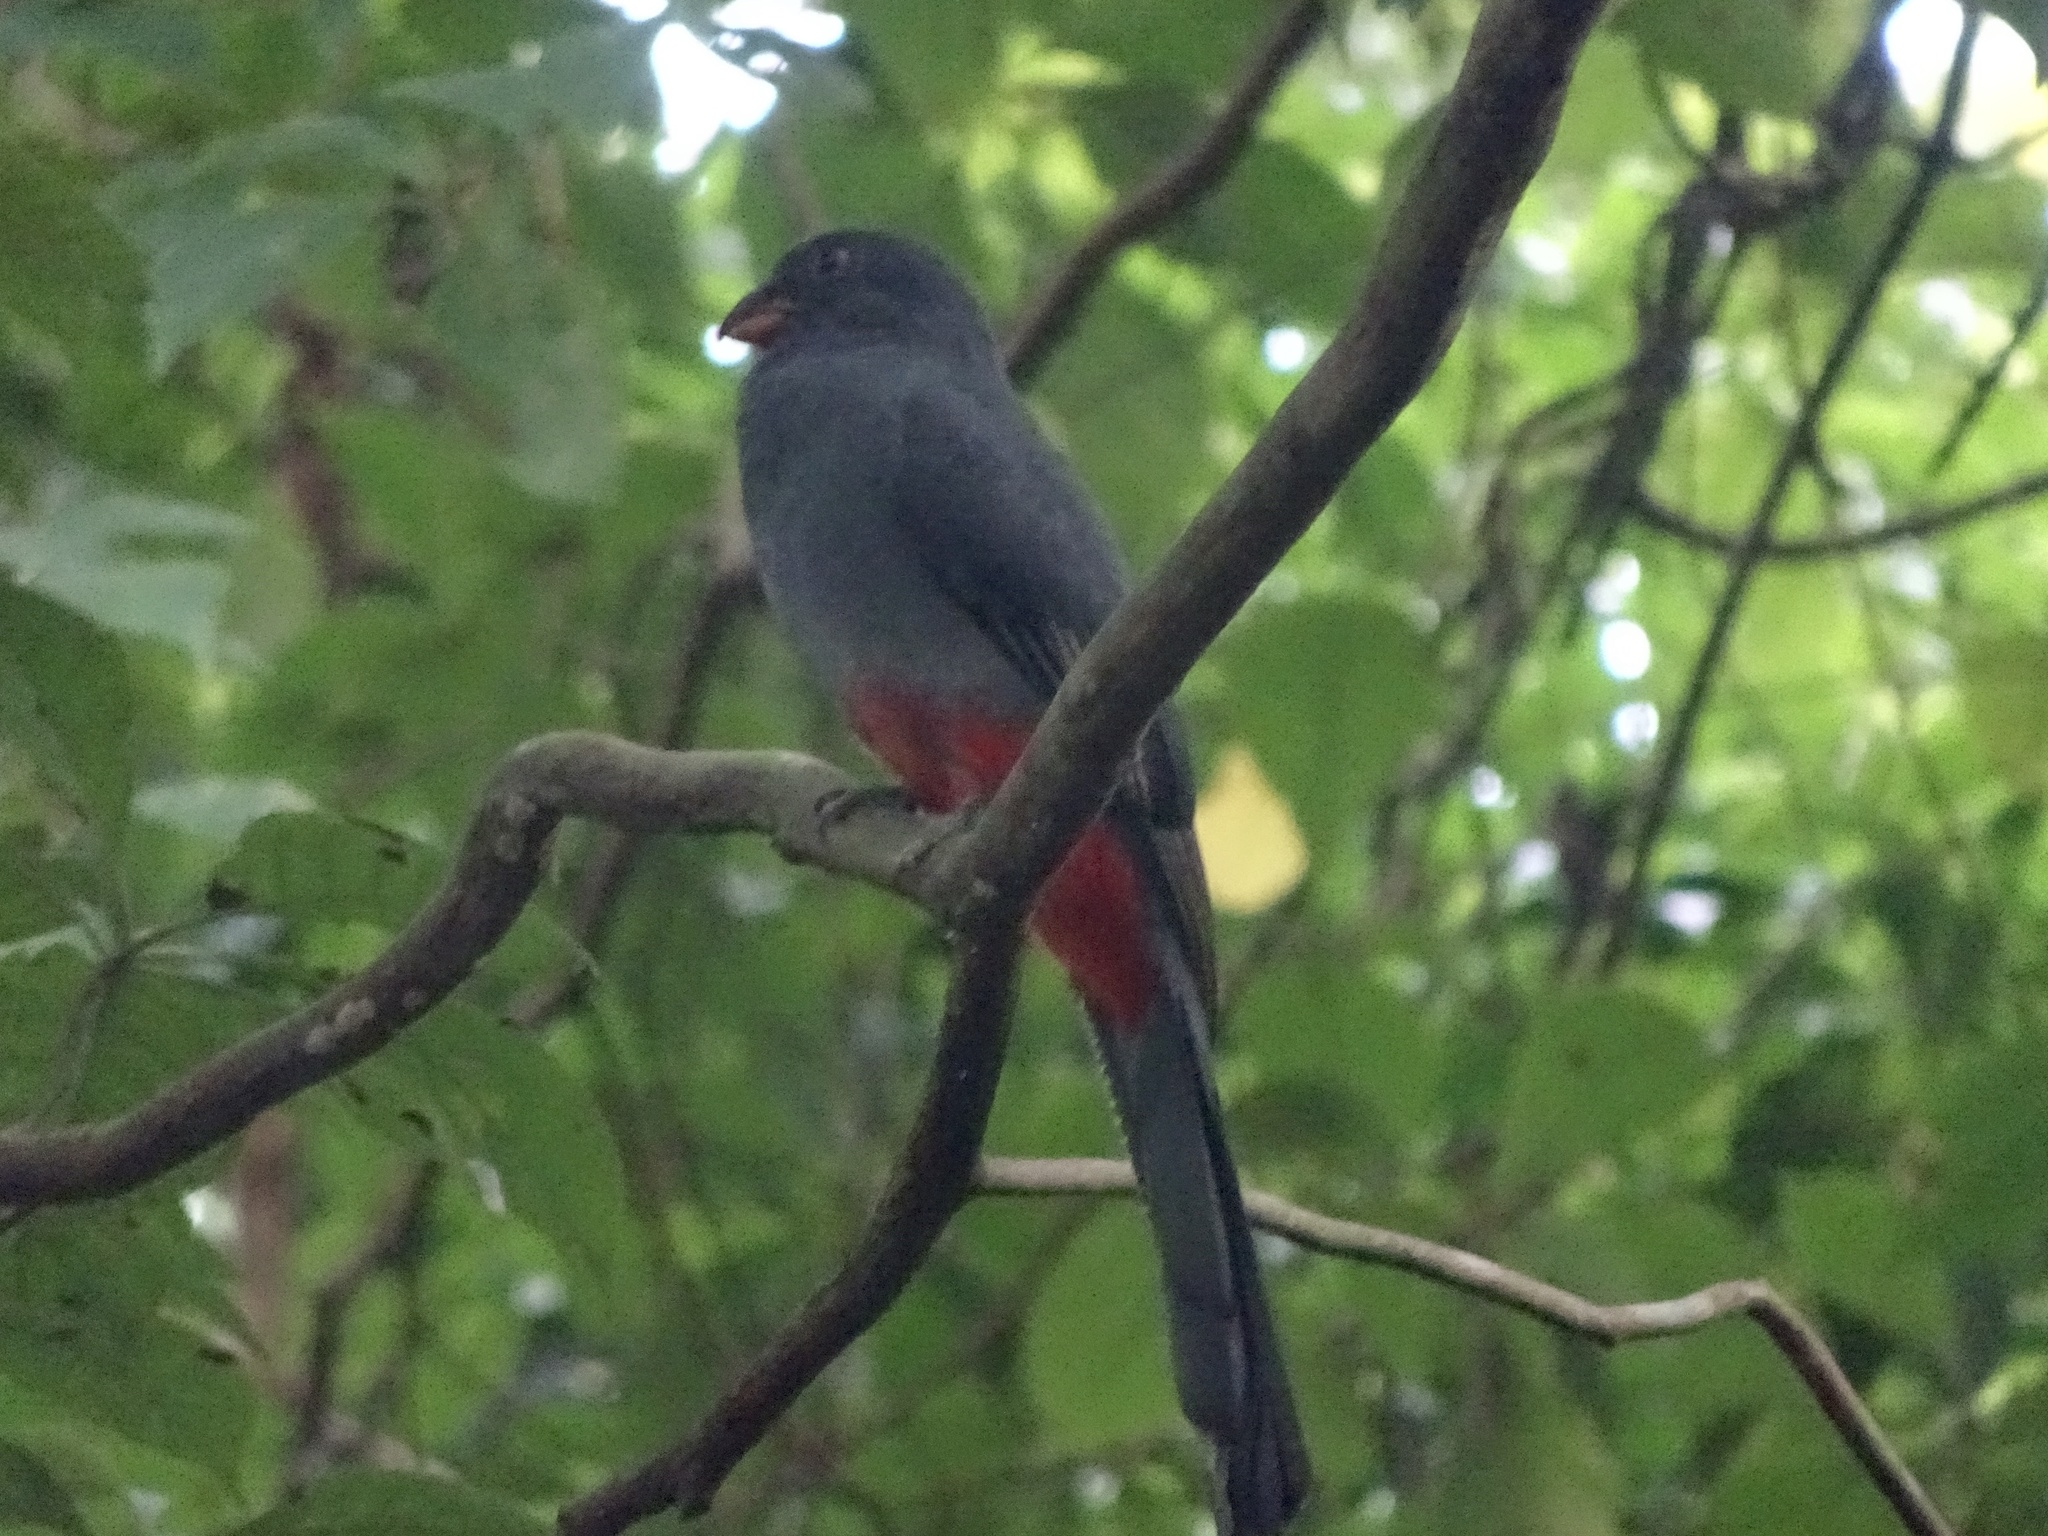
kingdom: Animalia
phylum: Chordata
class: Aves
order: Trogoniformes
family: Trogonidae
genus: Trogon
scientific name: Trogon massena
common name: Slaty-tailed trogon
